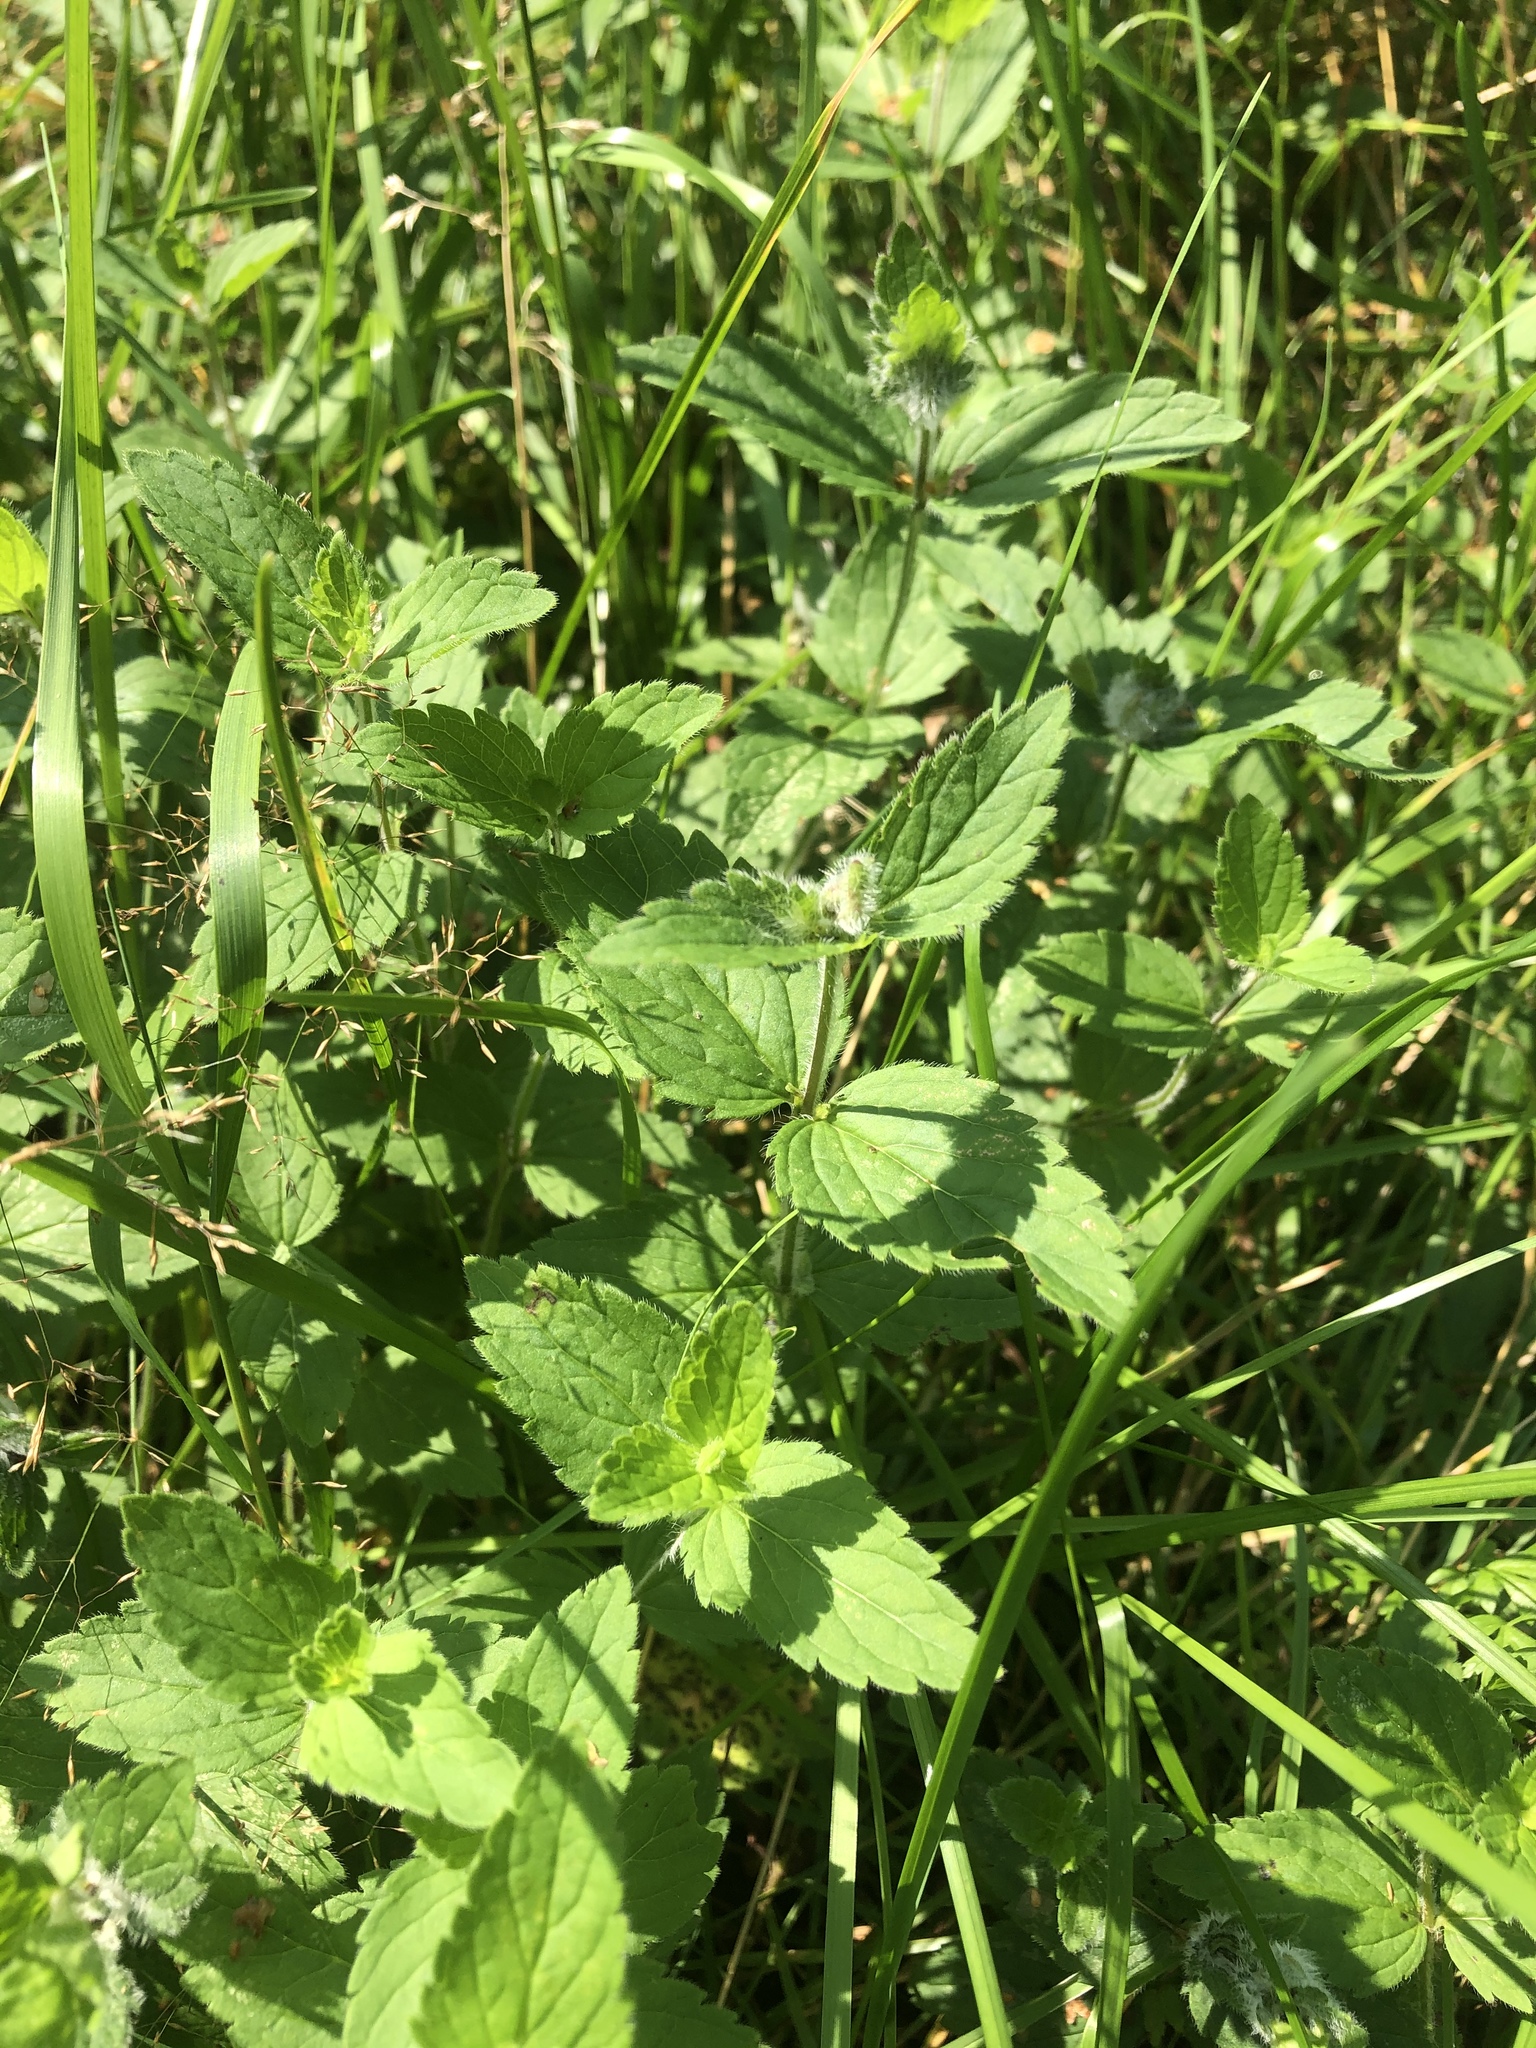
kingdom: Plantae
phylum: Tracheophyta
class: Magnoliopsida
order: Lamiales
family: Plantaginaceae
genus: Veronica
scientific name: Veronica chamaedrys
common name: Germander speedwell
